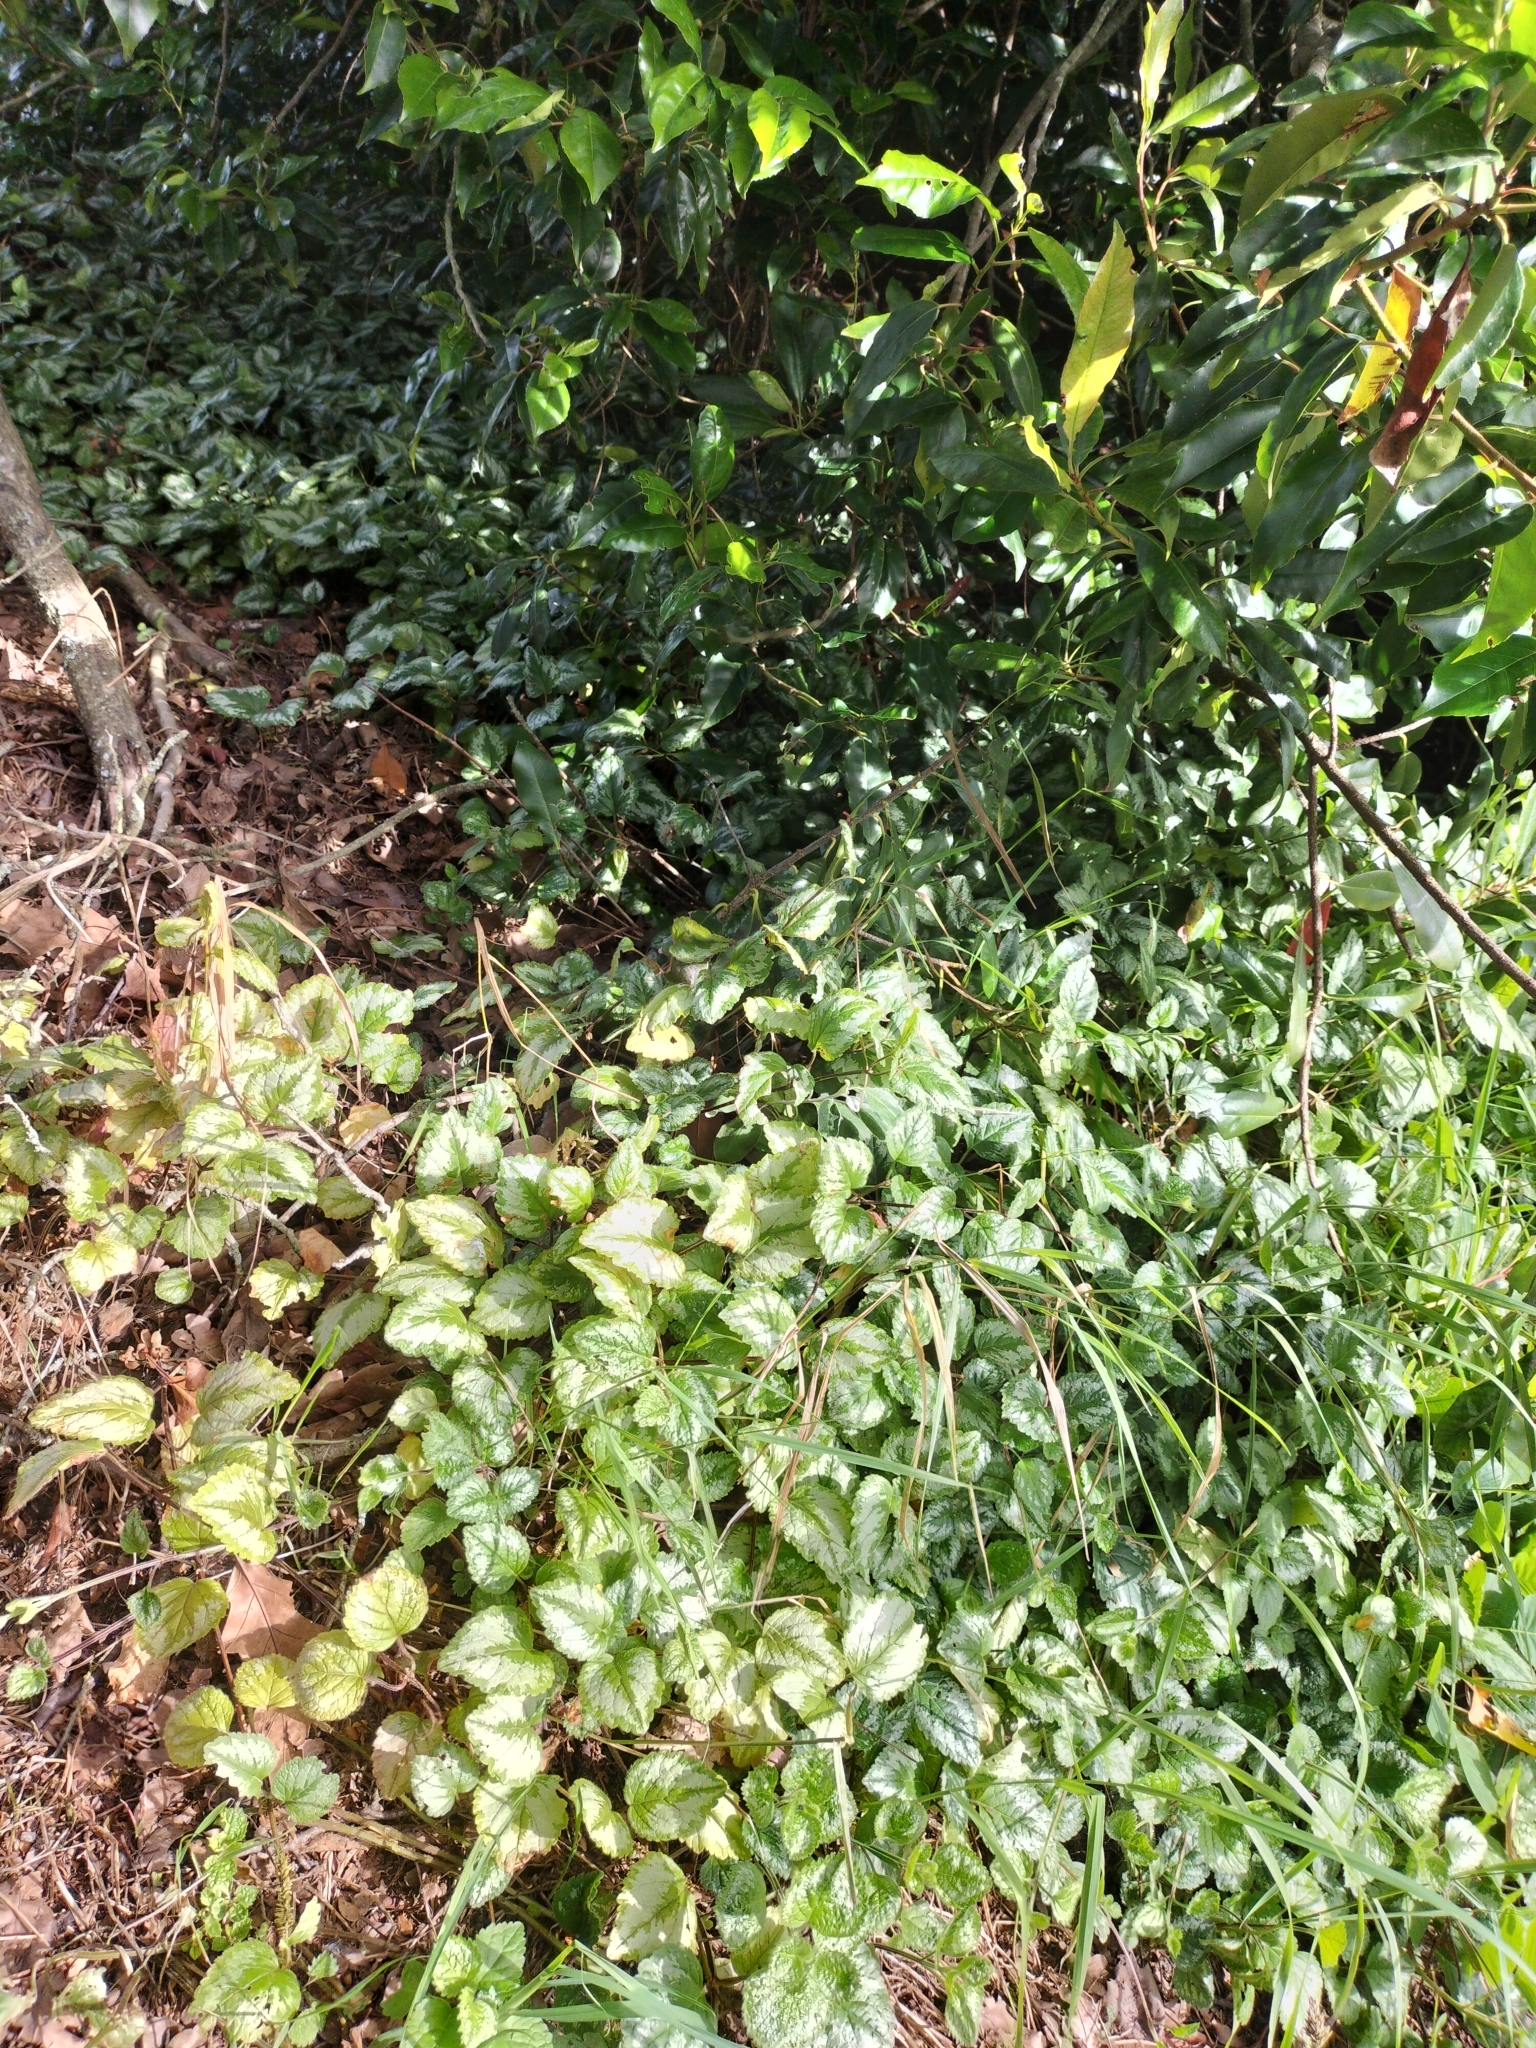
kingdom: Plantae
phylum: Tracheophyta
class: Magnoliopsida
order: Lamiales
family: Lamiaceae
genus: Lamium
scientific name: Lamium galeobdolon
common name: Yellow archangel
